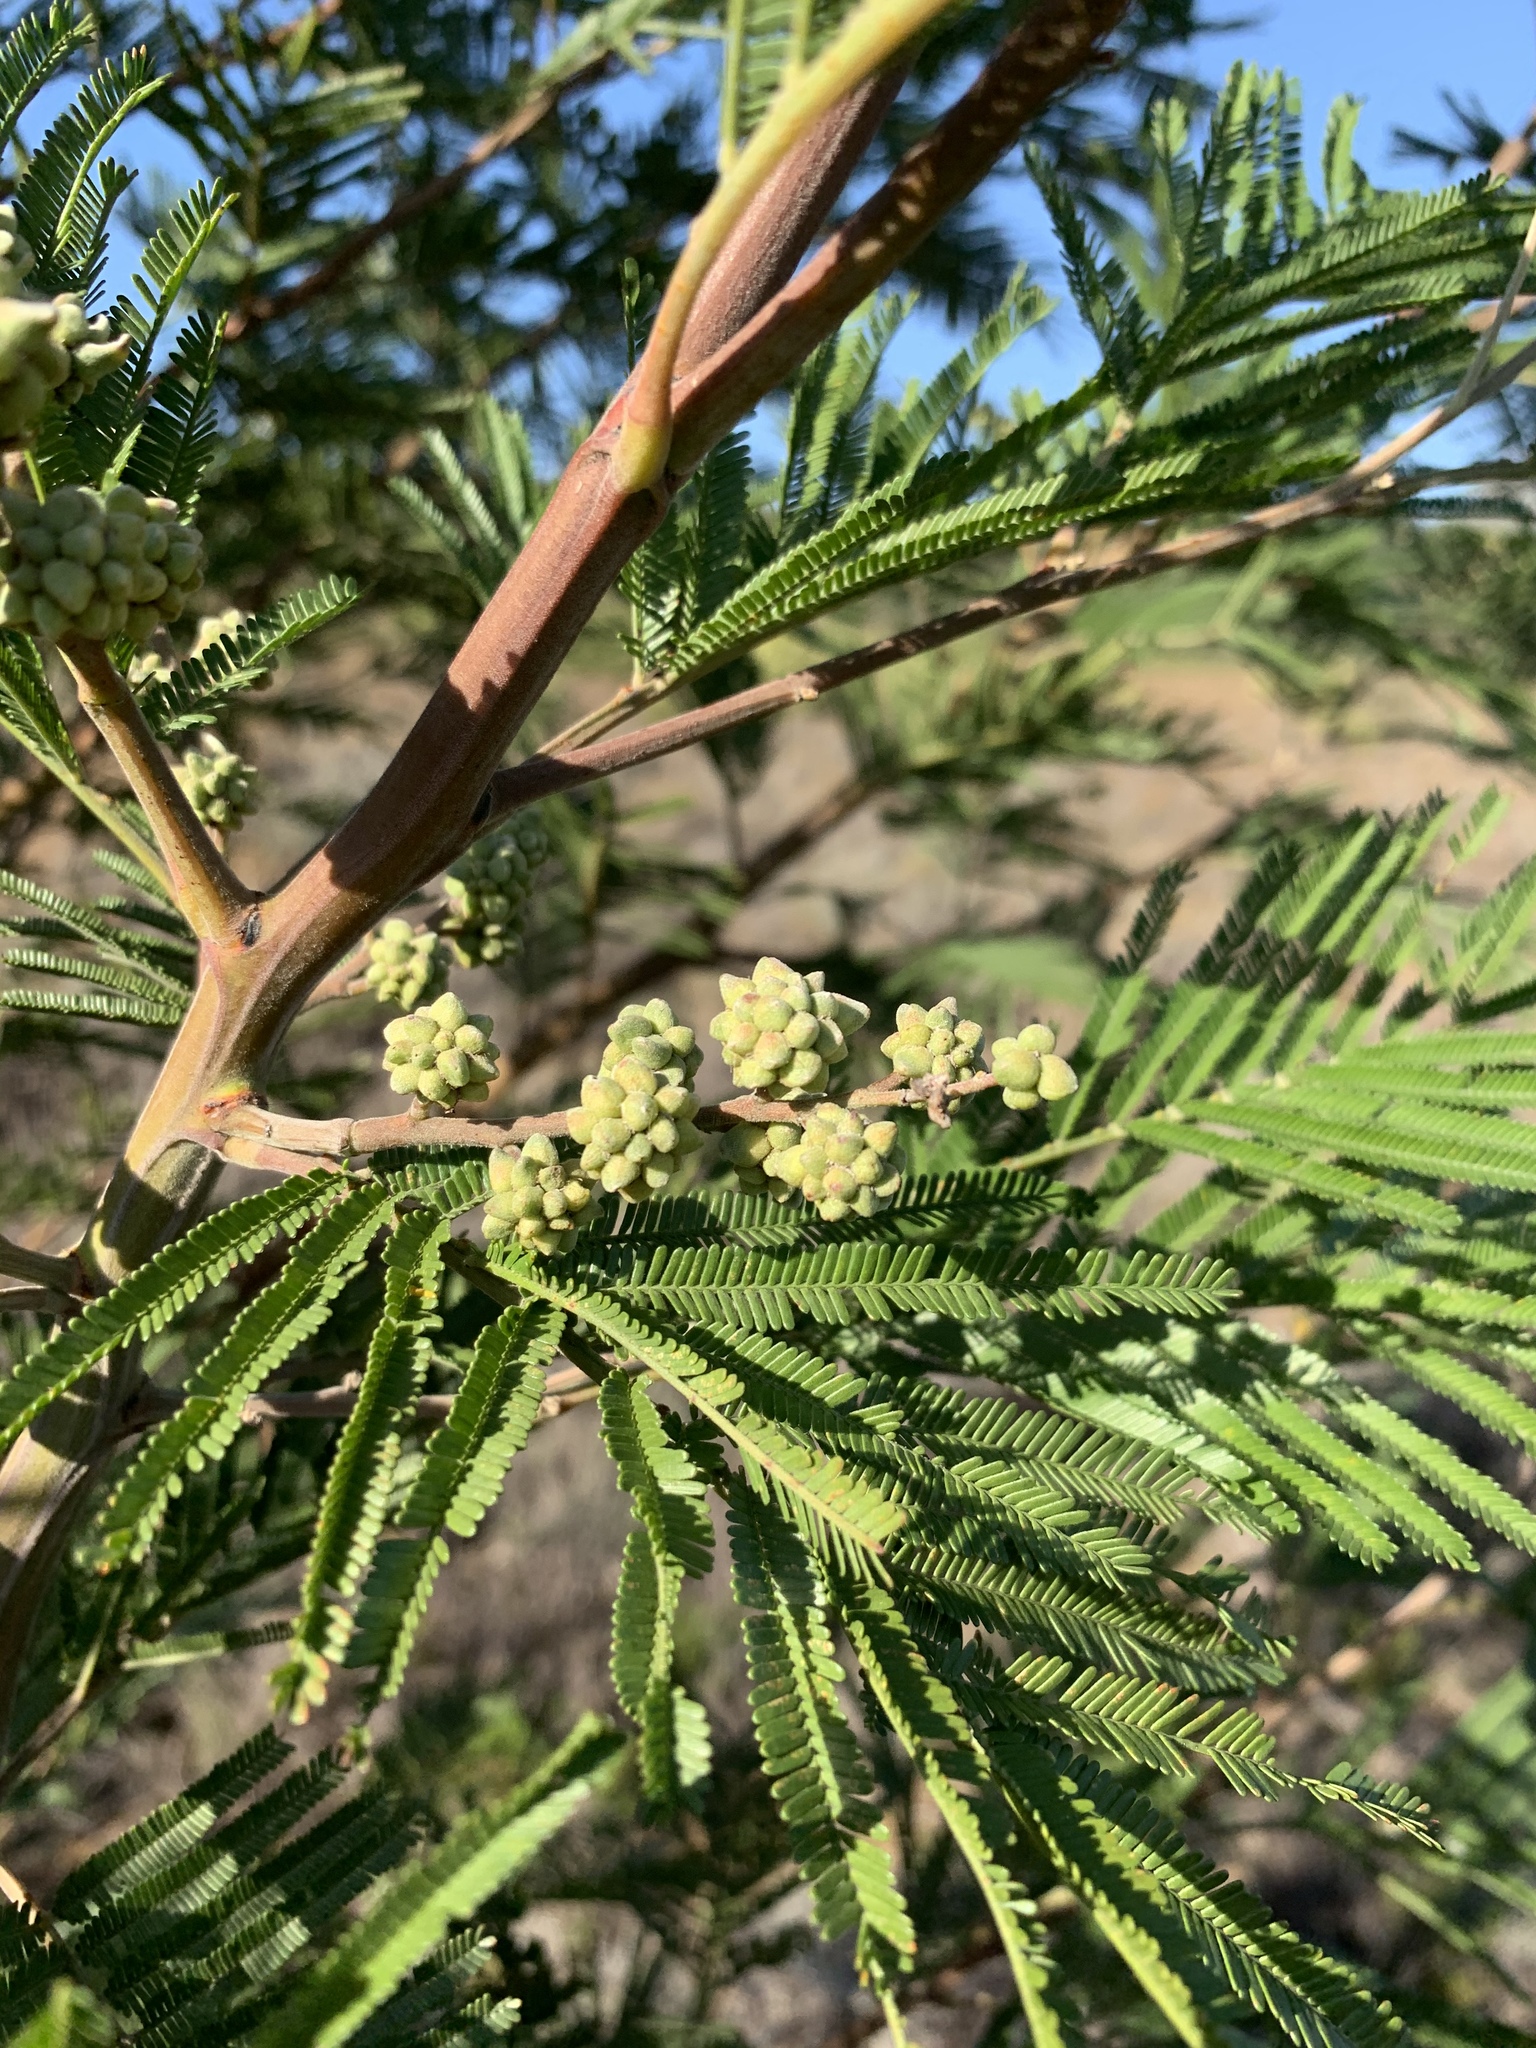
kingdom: Animalia
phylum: Arthropoda
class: Insecta
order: Diptera
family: Cecidomyiidae
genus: Dasineura
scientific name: Dasineura rubiformis
